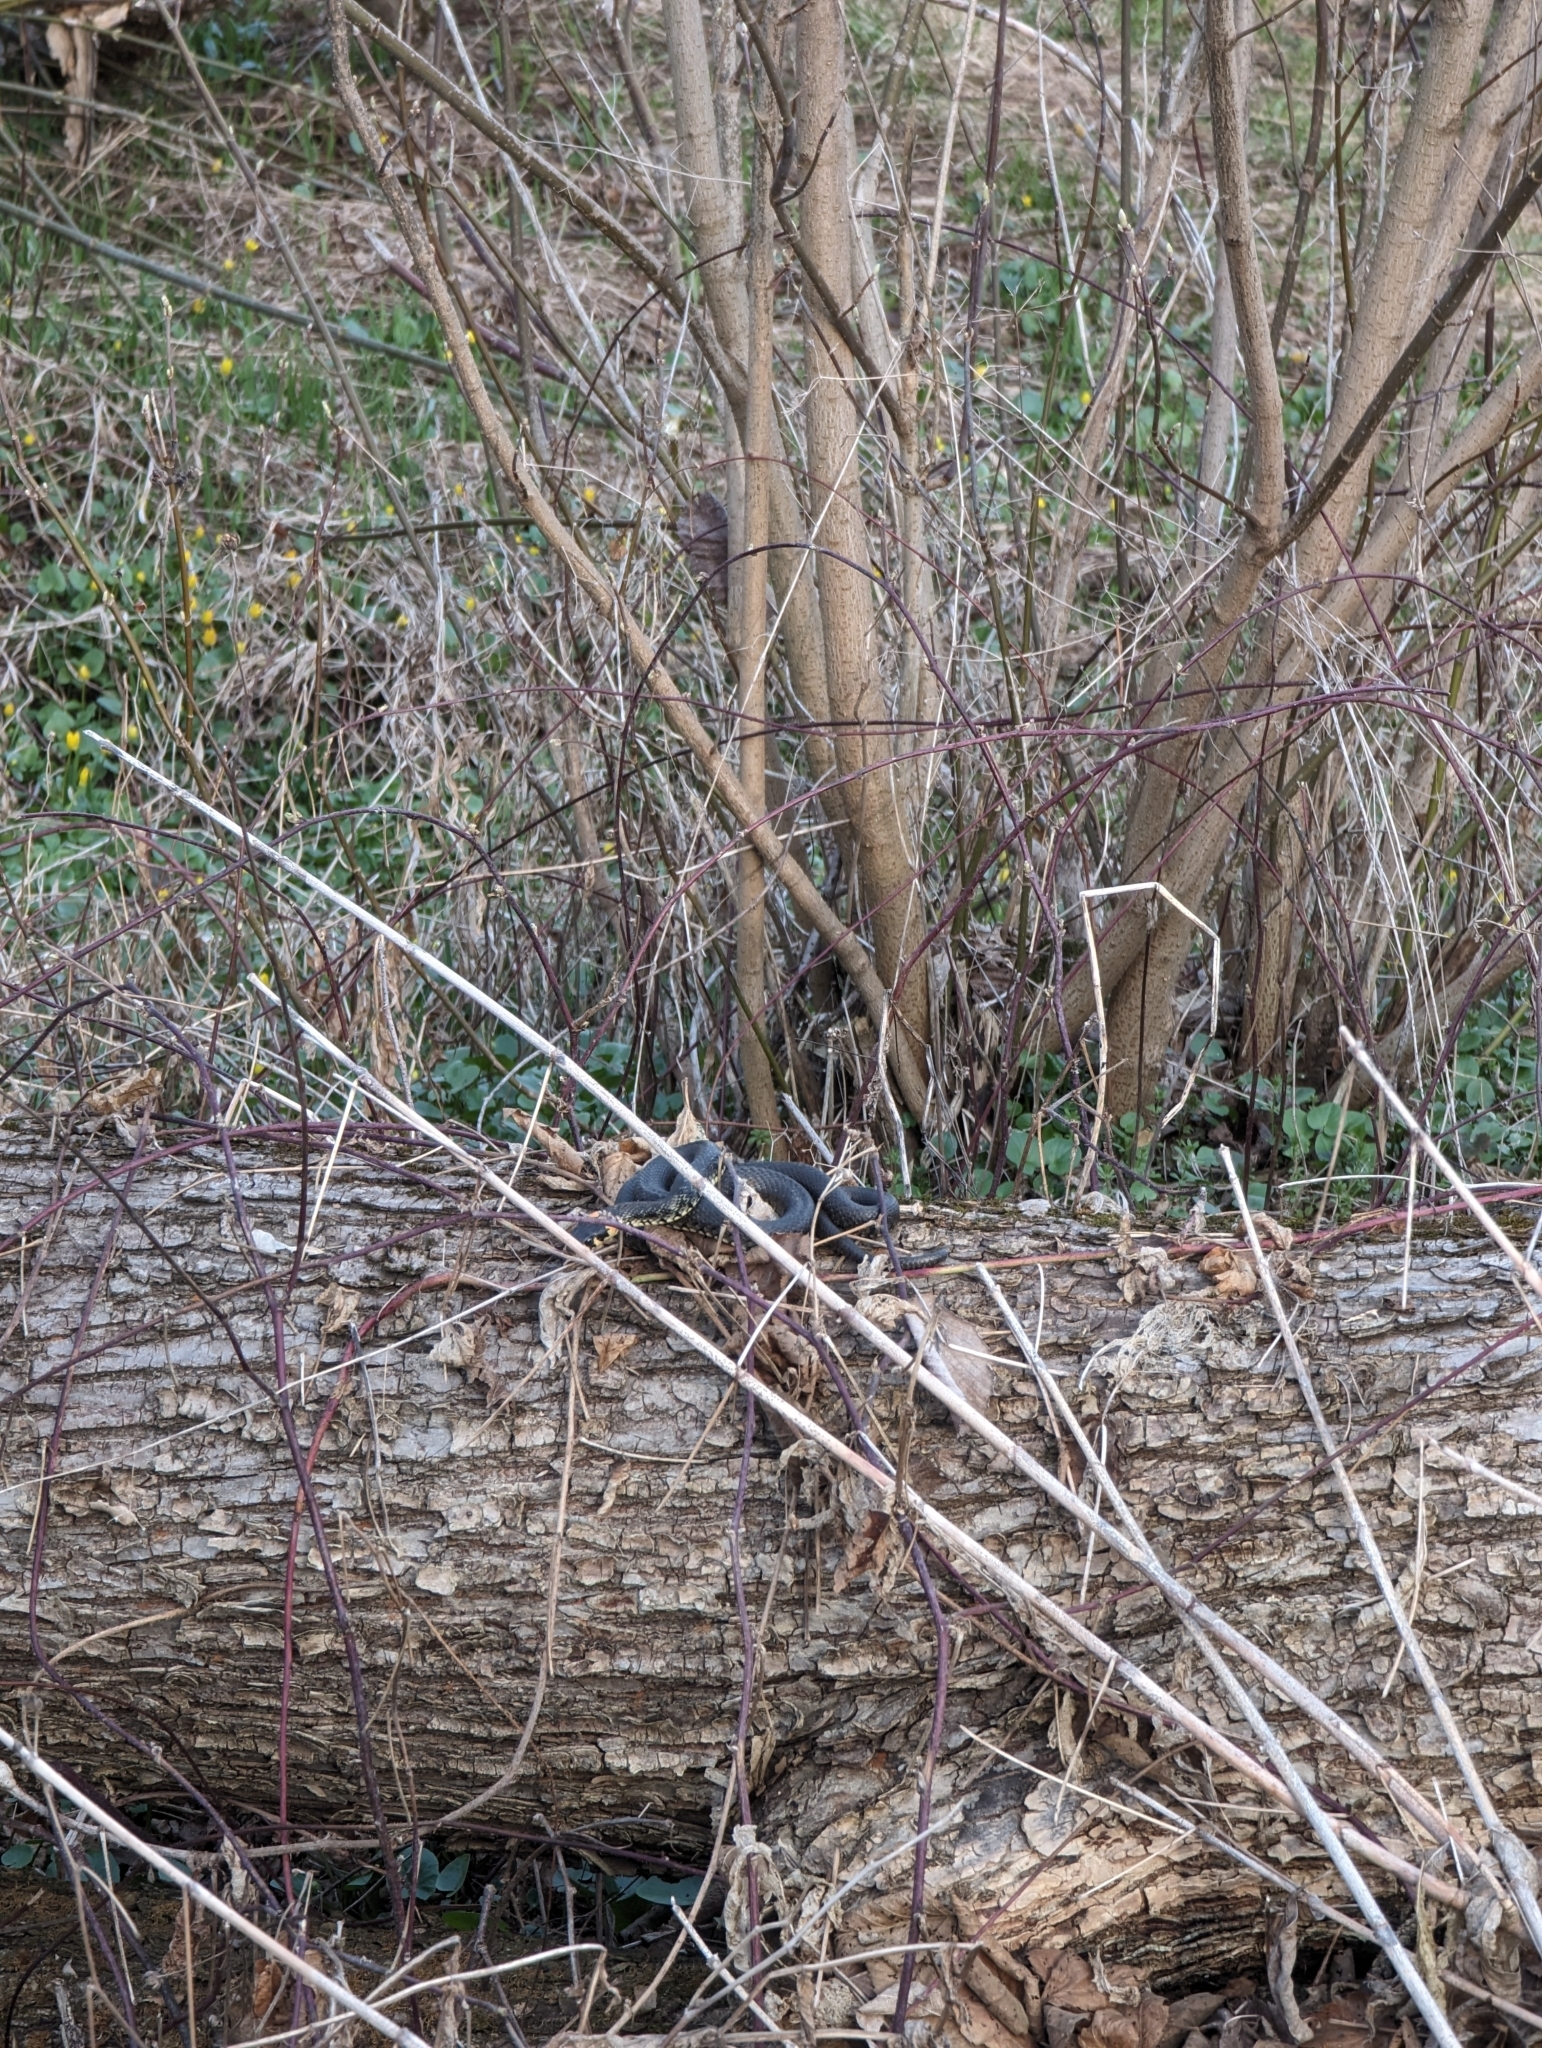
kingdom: Animalia
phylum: Chordata
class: Squamata
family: Colubridae
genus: Natrix
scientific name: Natrix natrix
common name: Grass snake
